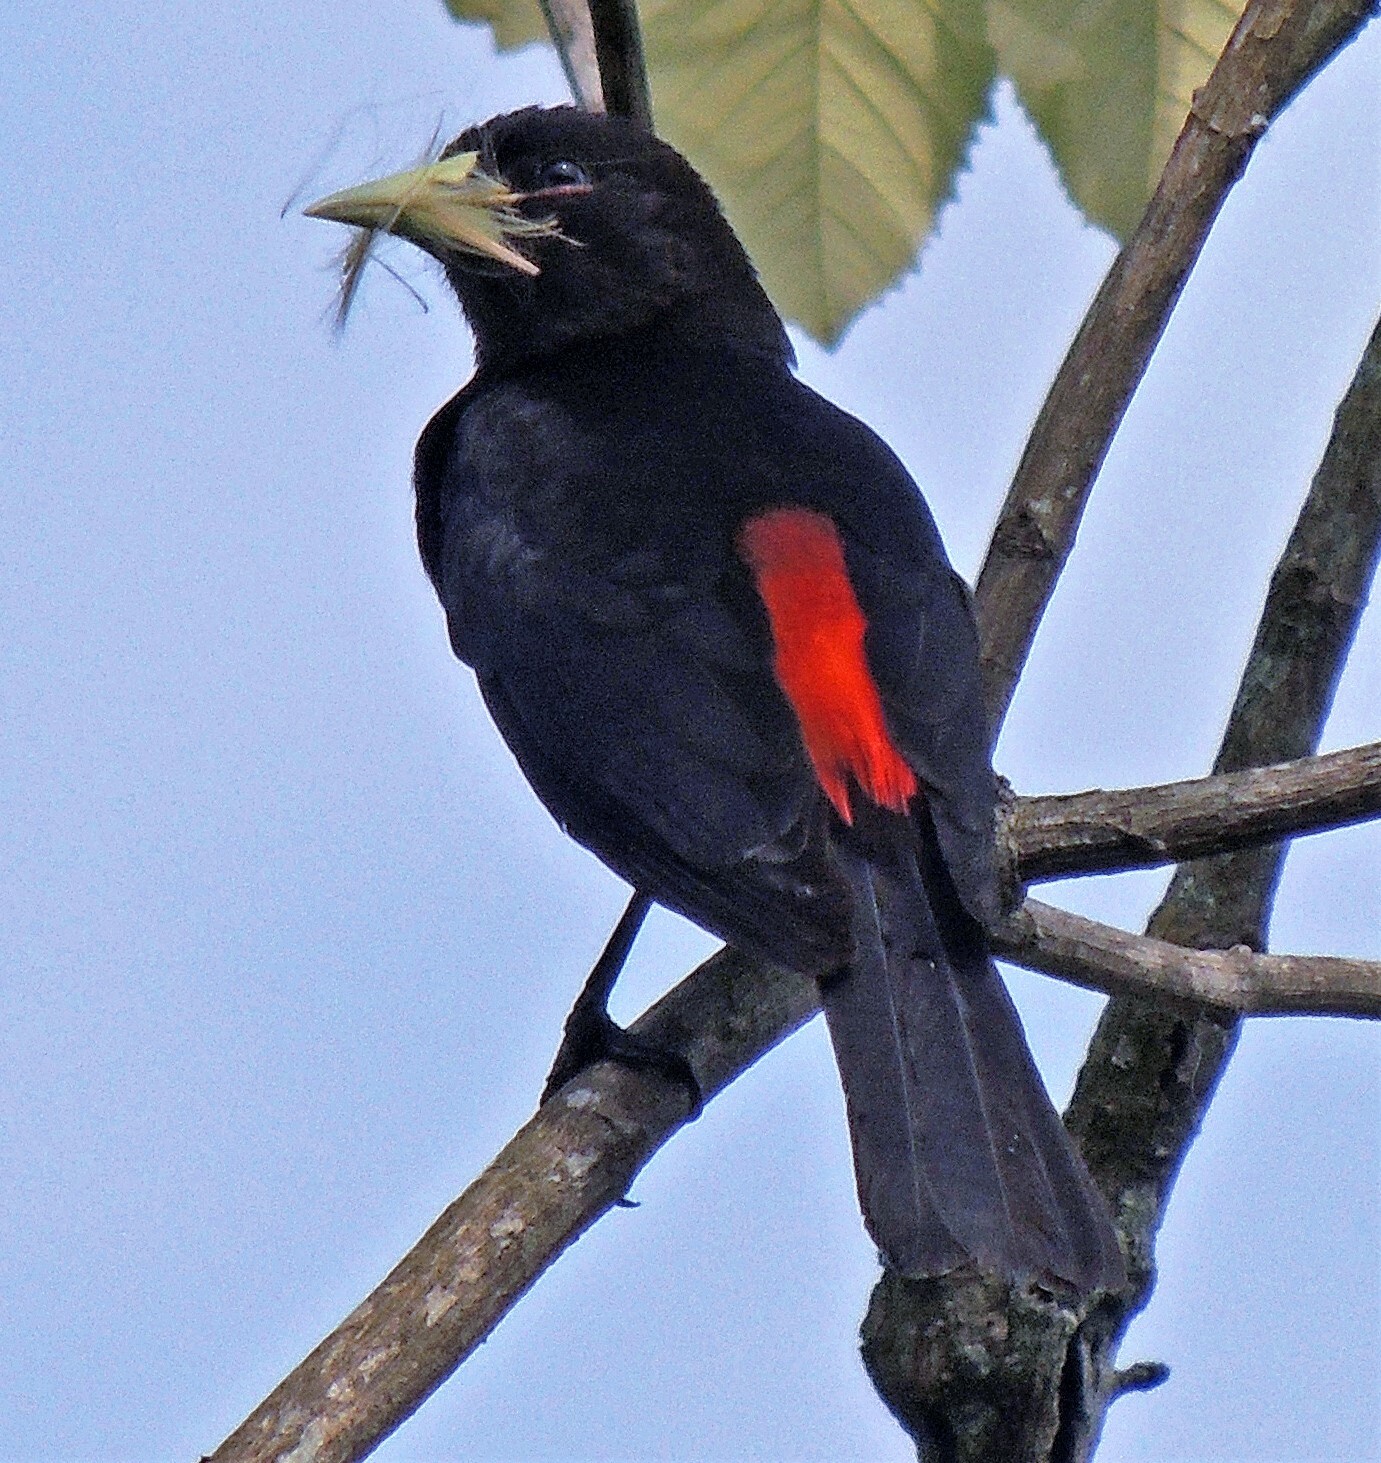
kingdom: Animalia
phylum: Chordata
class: Aves
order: Passeriformes
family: Icteridae
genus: Cacicus
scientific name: Cacicus haemorrhous
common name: Red-rumped cacique
